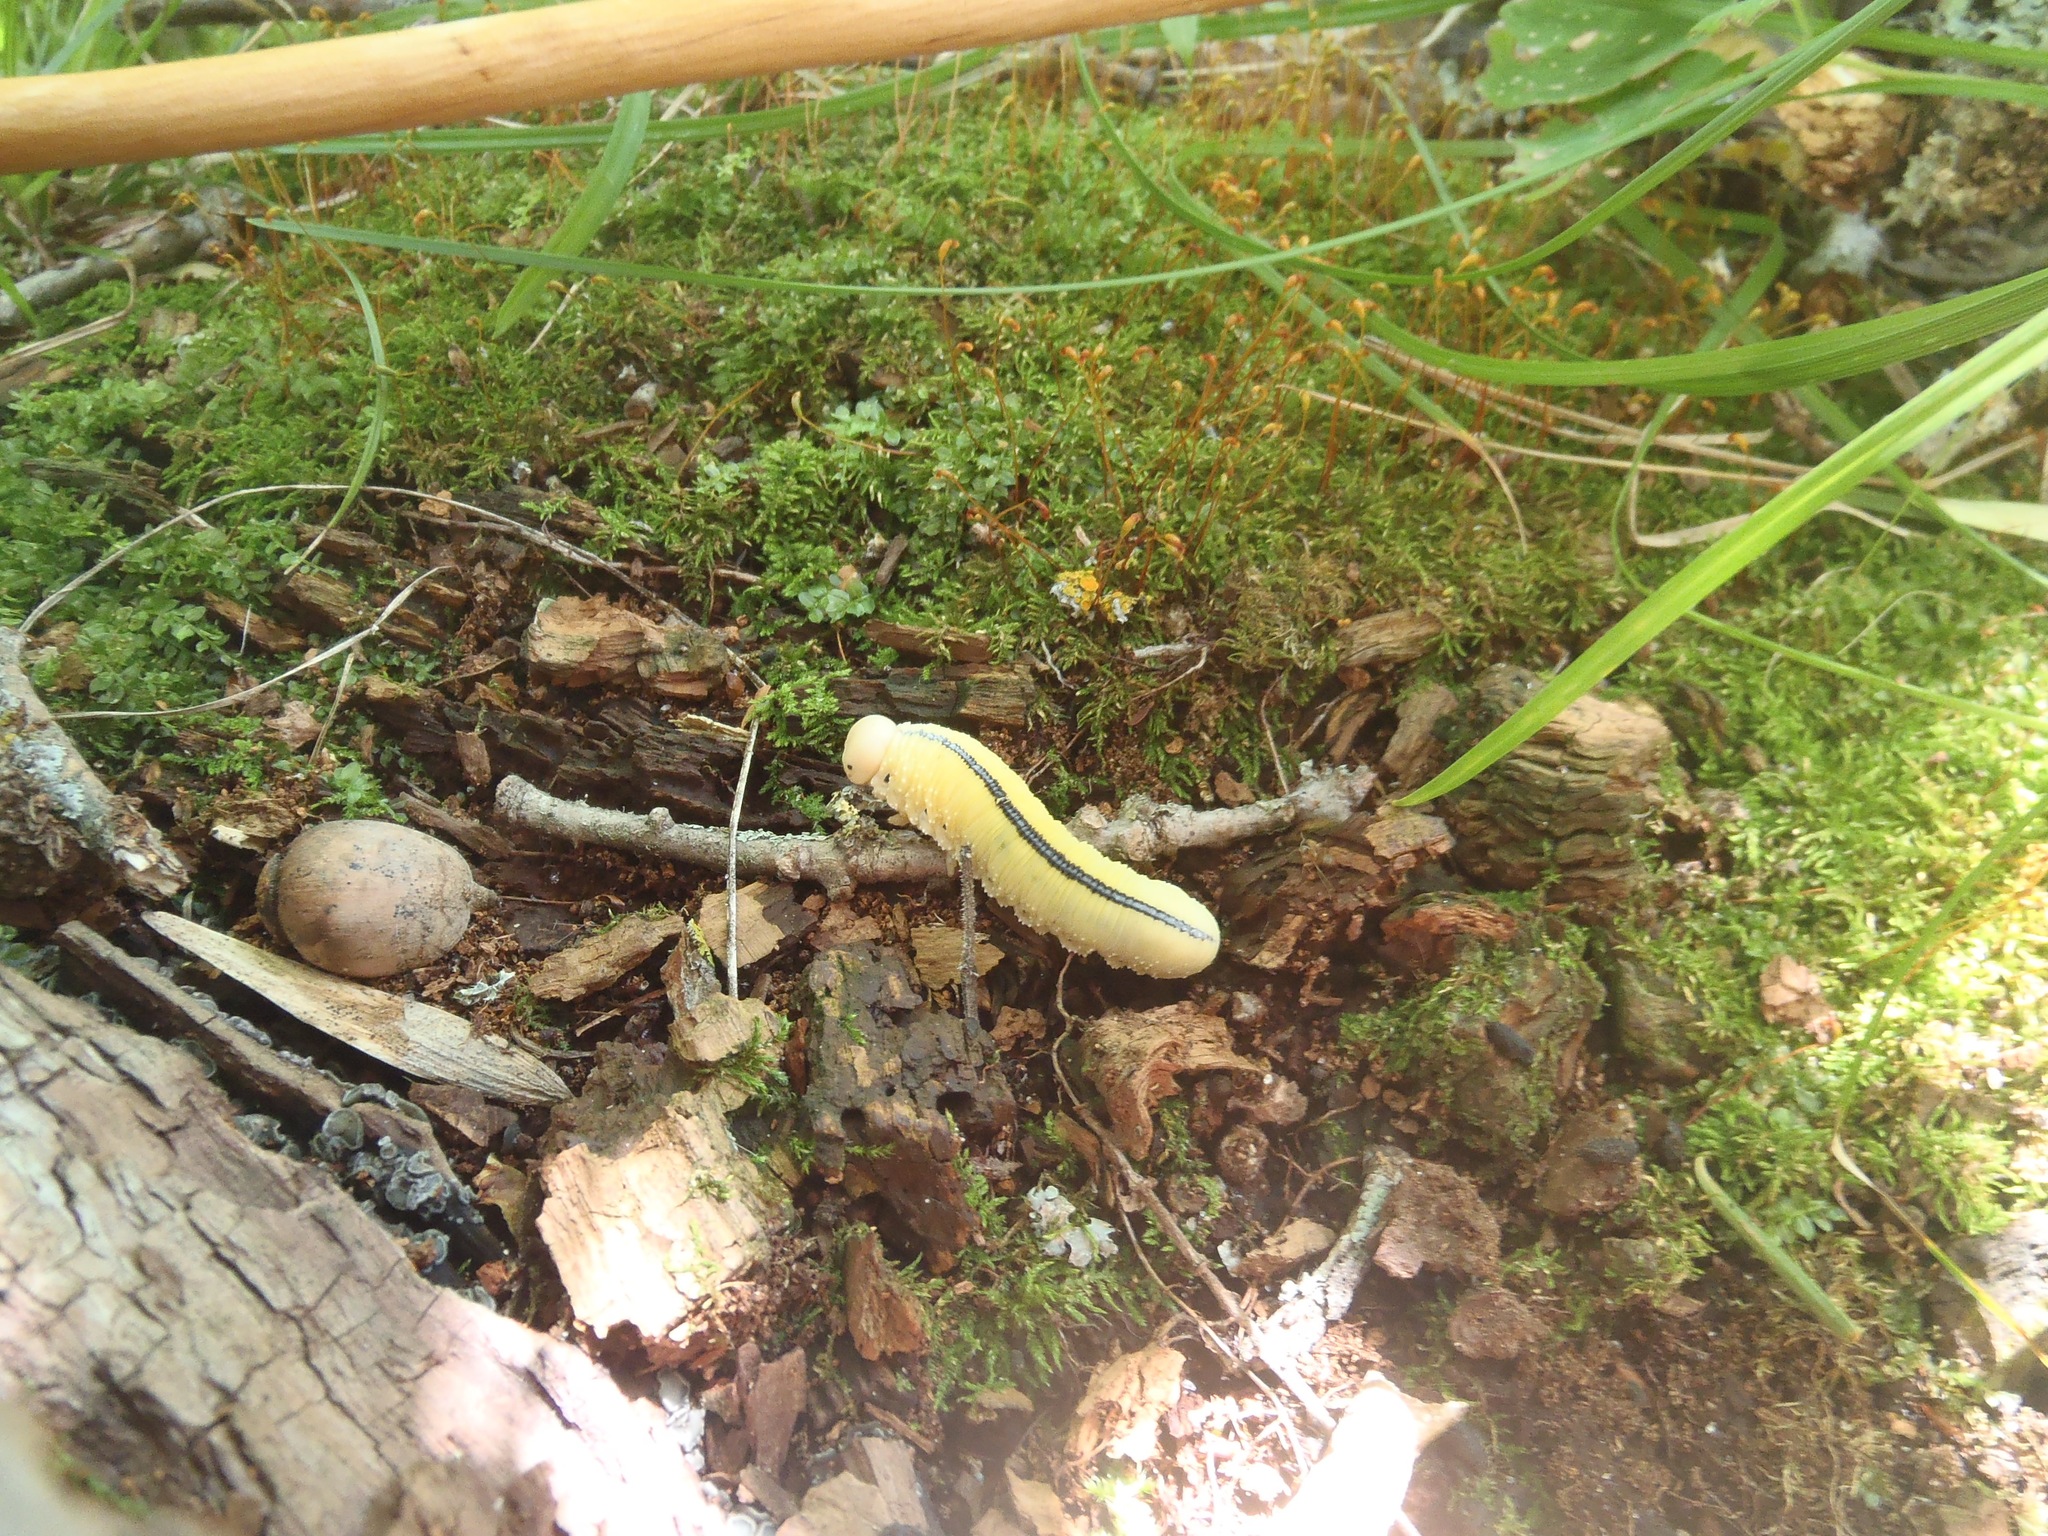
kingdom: Animalia
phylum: Arthropoda
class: Insecta
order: Hymenoptera
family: Cimbicidae
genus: Cimbex
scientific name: Cimbex americana
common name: Elm sawfly
